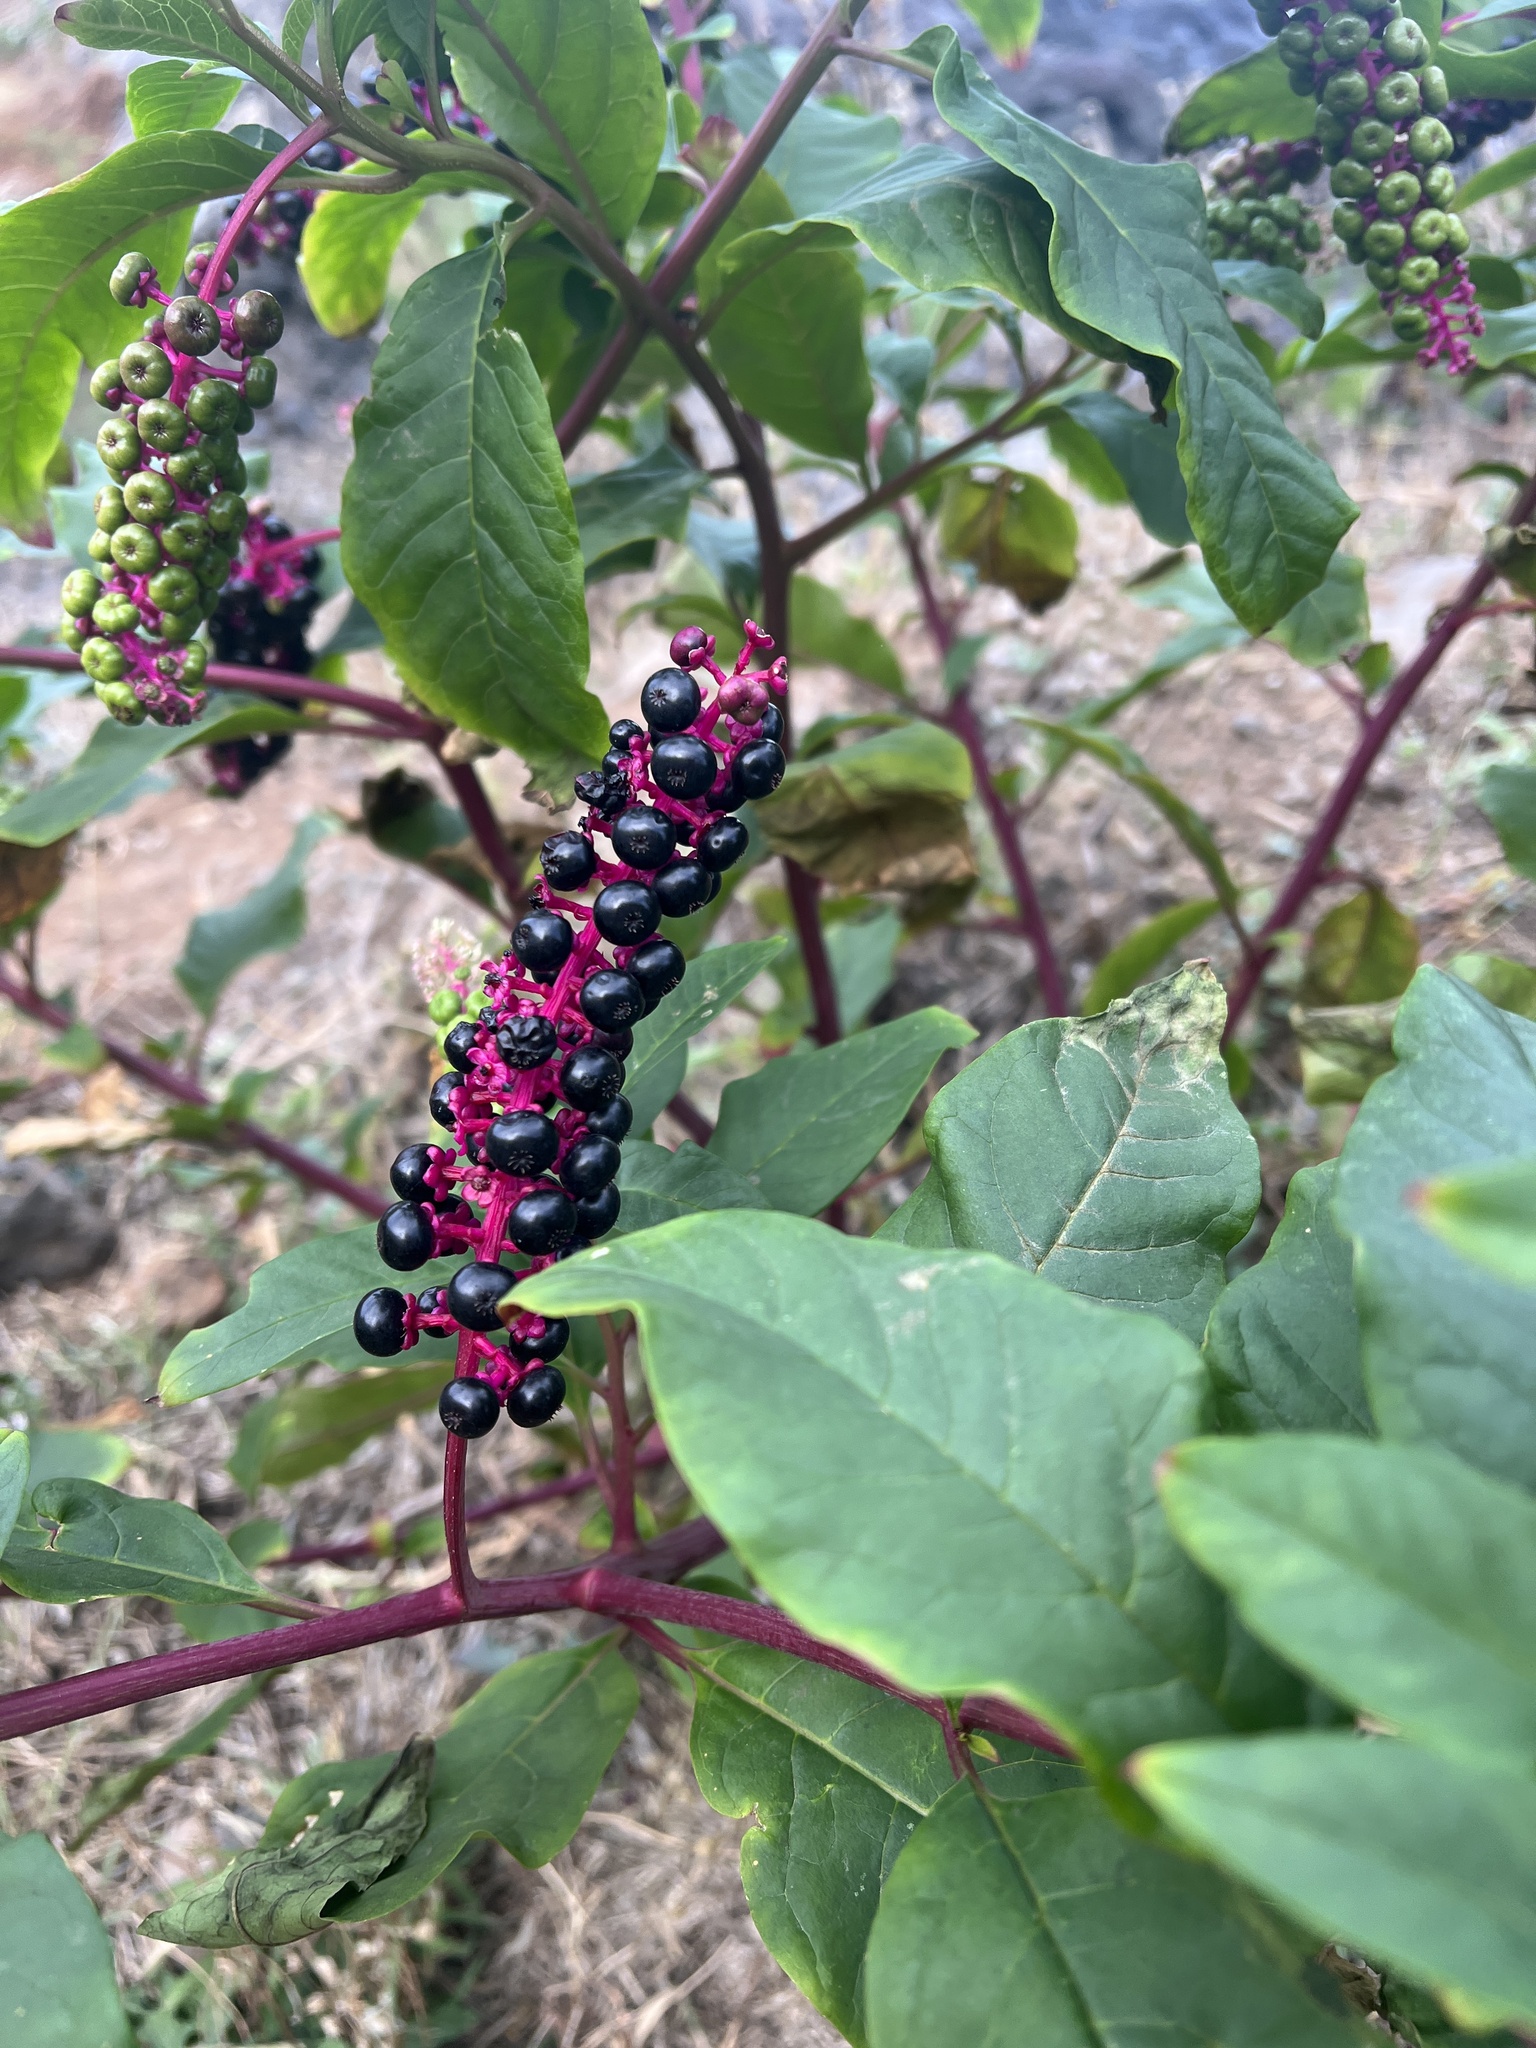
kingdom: Plantae
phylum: Tracheophyta
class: Magnoliopsida
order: Caryophyllales
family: Phytolaccaceae
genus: Phytolacca
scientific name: Phytolacca americana
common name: American pokeweed
